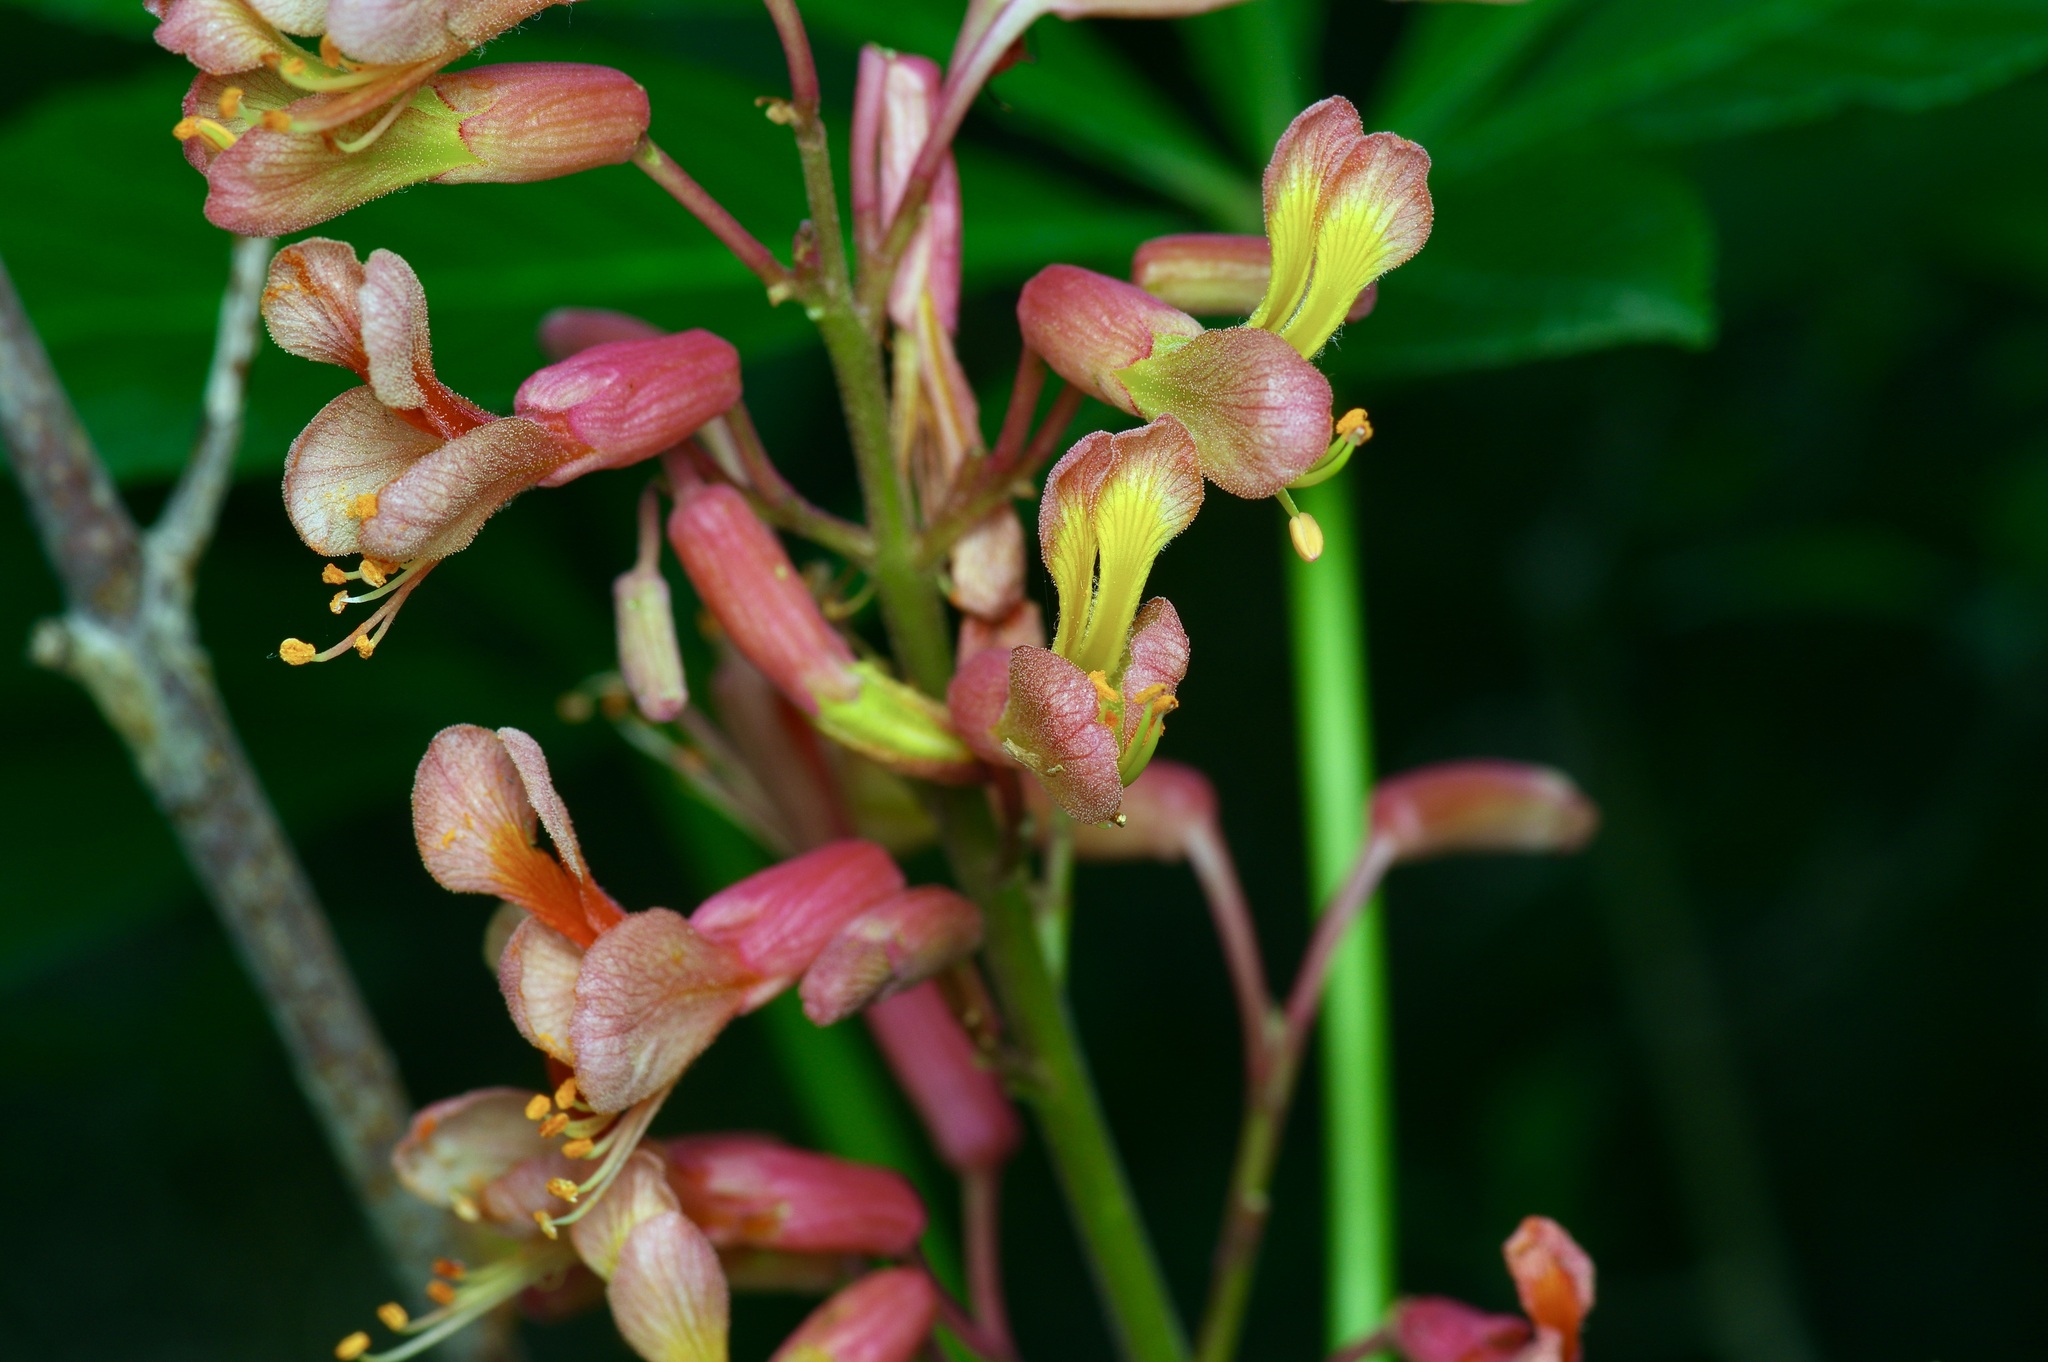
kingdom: Plantae
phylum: Tracheophyta
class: Magnoliopsida
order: Sapindales
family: Sapindaceae
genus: Aesculus
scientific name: Aesculus pavia
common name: Red buckeye
